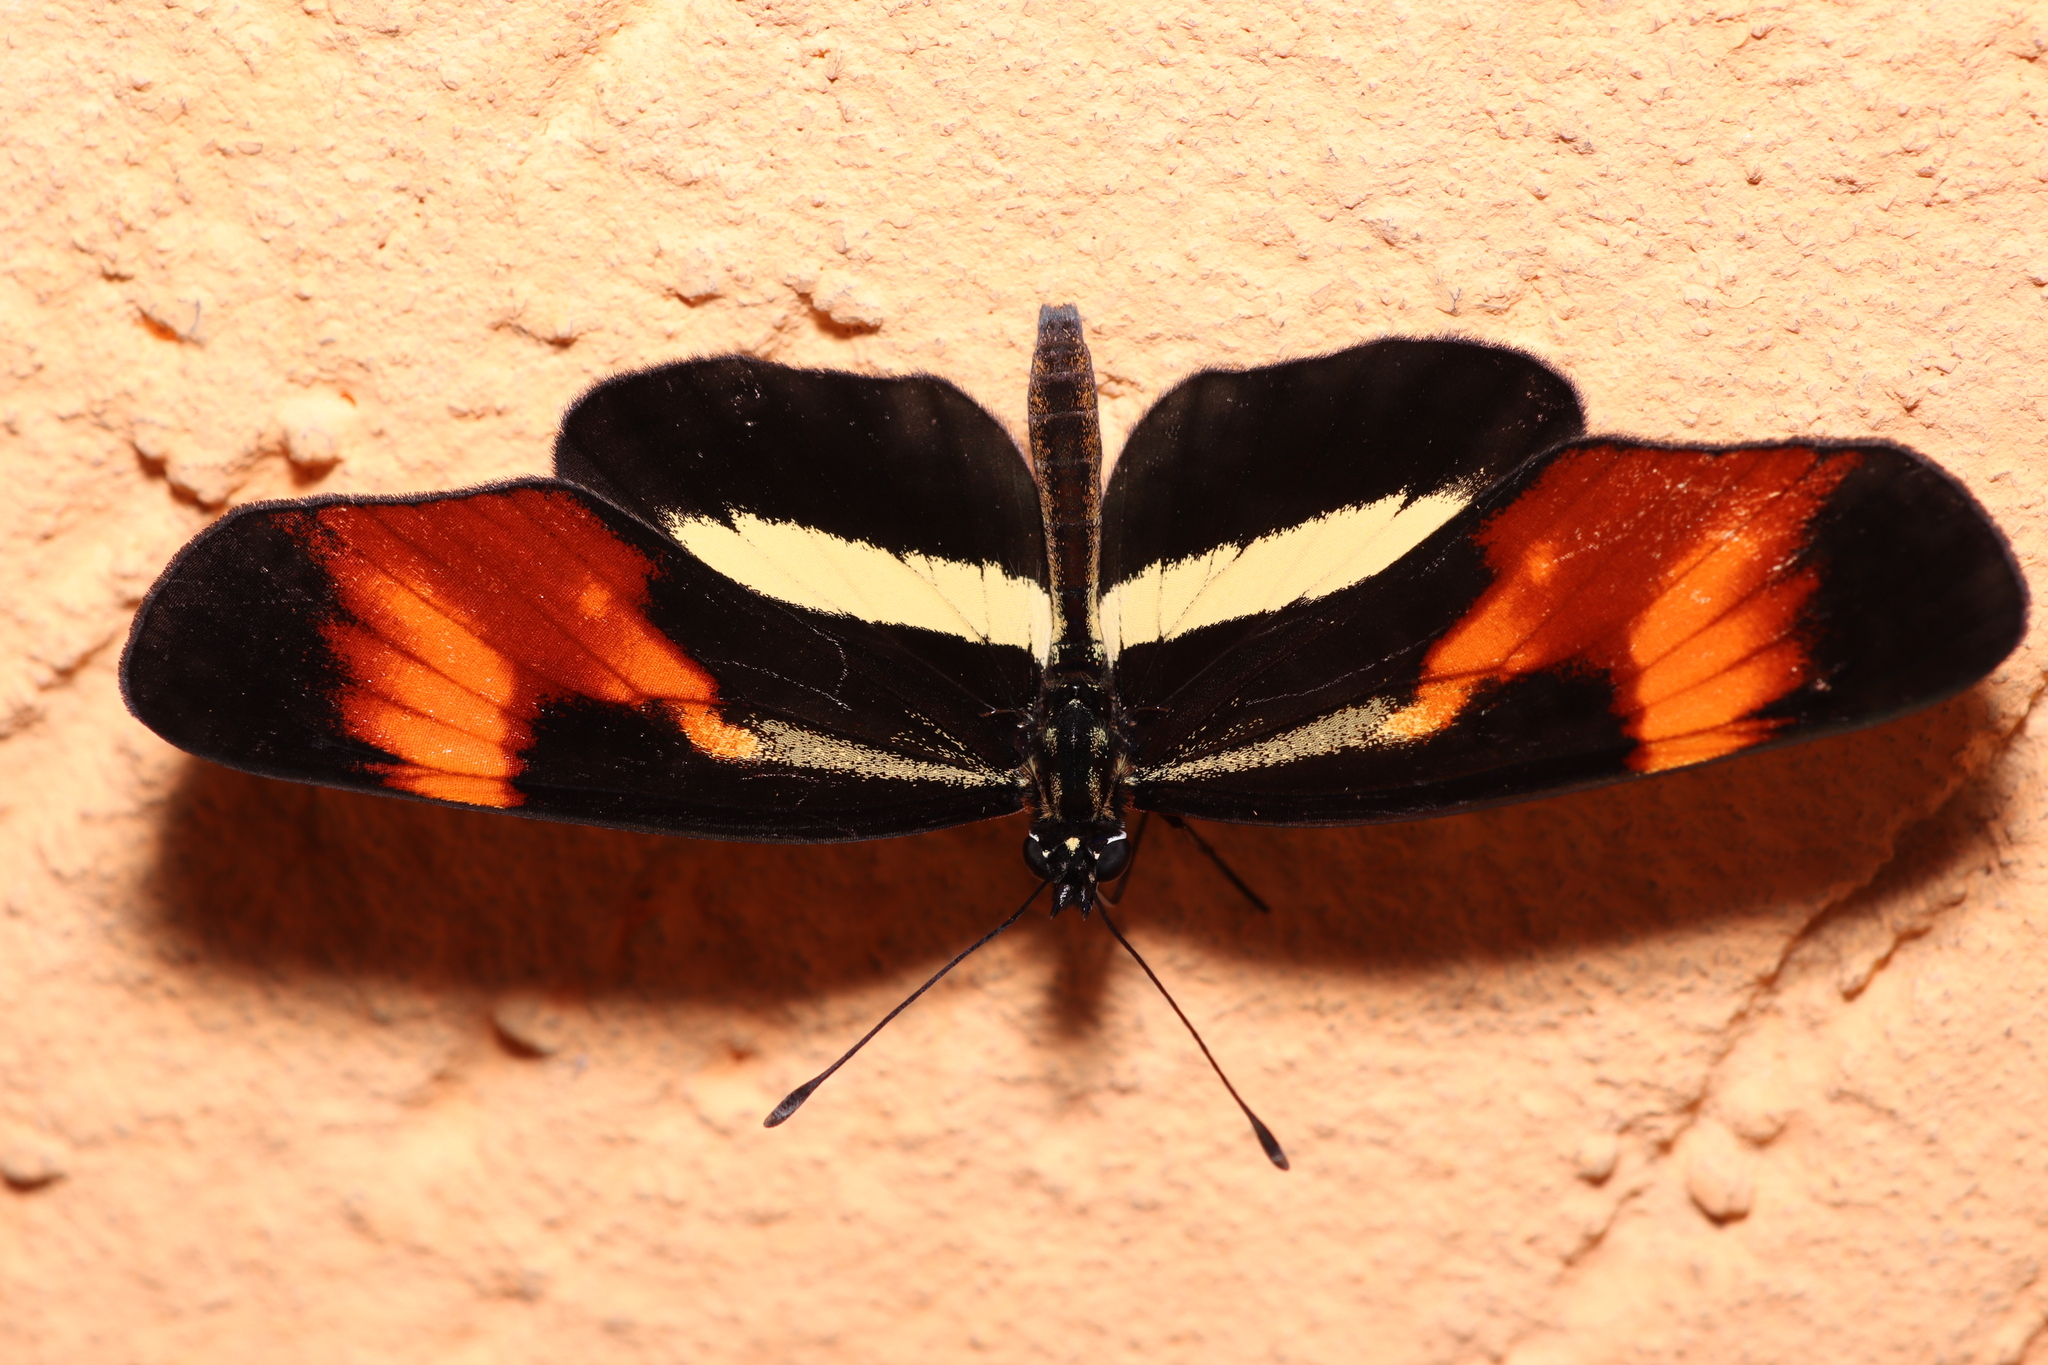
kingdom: Animalia
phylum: Arthropoda
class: Insecta
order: Lepidoptera
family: Nymphalidae
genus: Eresia
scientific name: Eresia lansdorfi
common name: Lansdorf's crescent
